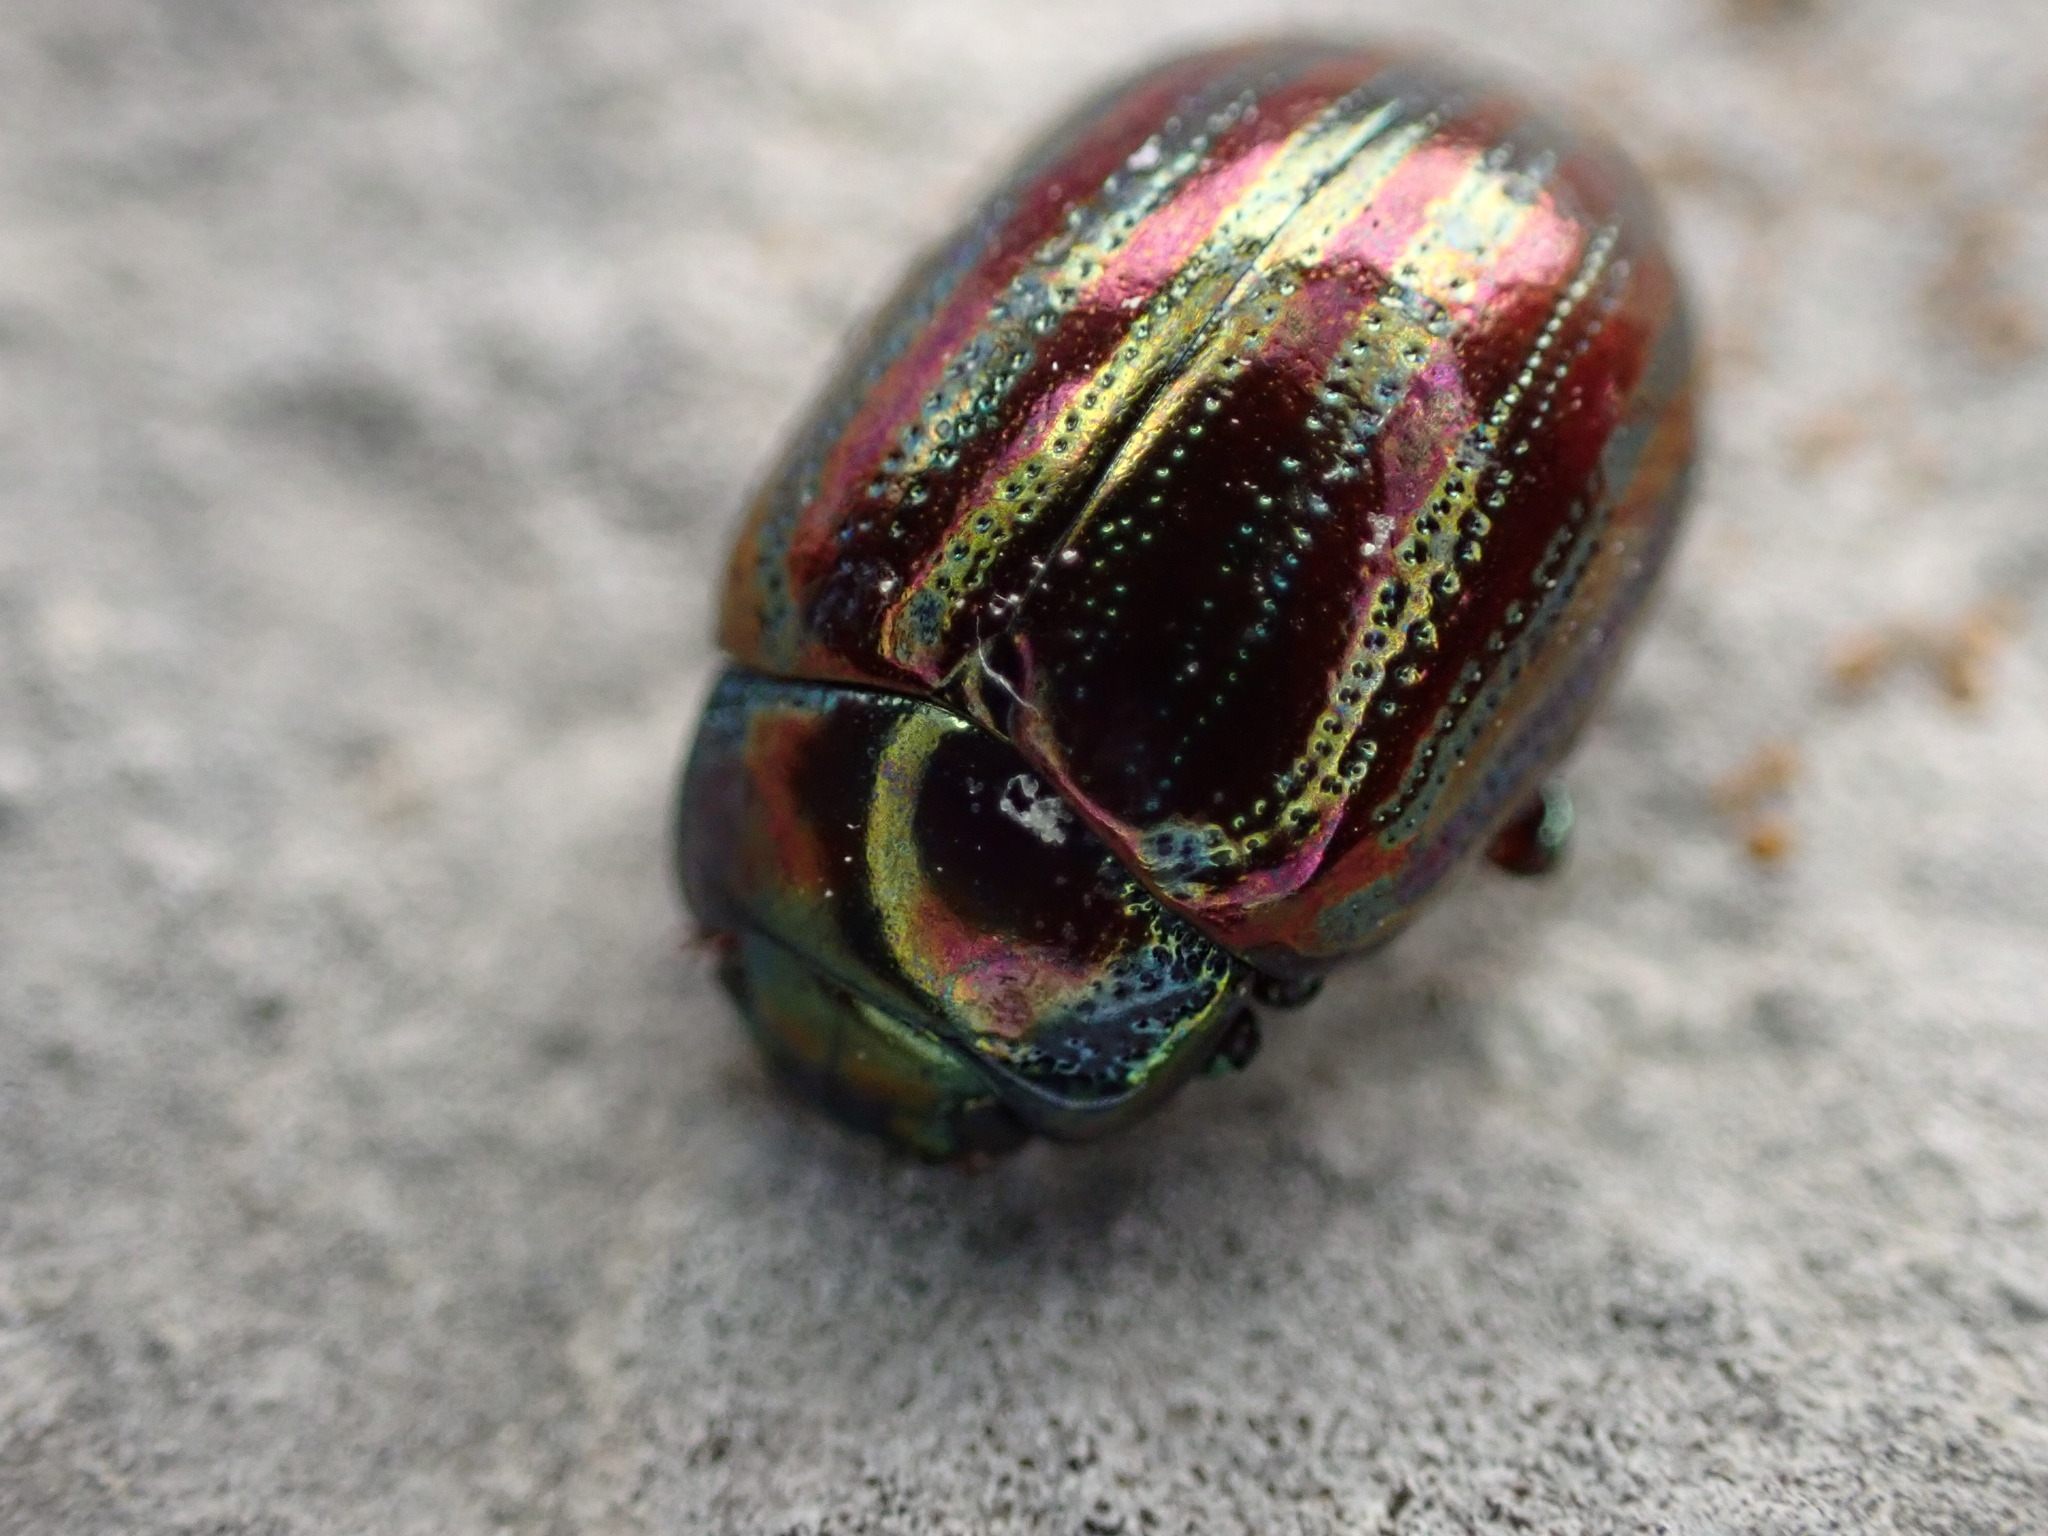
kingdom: Animalia
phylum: Arthropoda
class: Insecta
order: Coleoptera
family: Chrysomelidae
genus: Chrysolina
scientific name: Chrysolina americana
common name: Rosemary beetle
